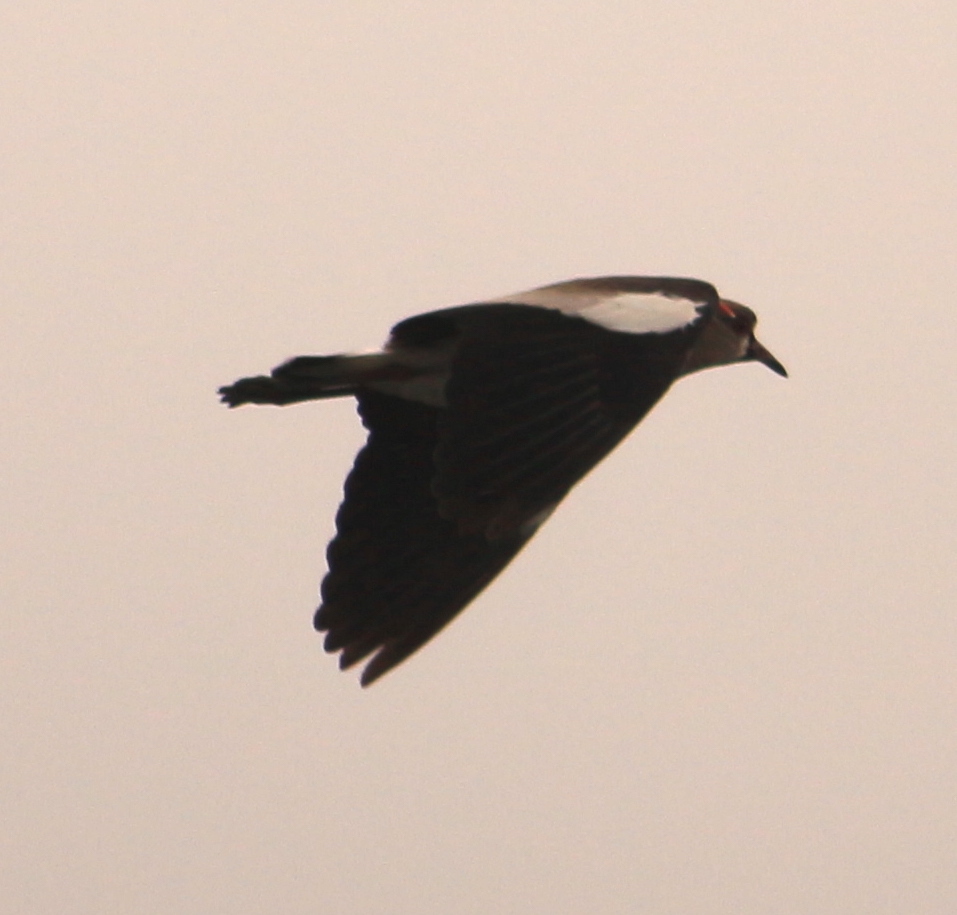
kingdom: Animalia
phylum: Chordata
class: Aves
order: Charadriiformes
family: Charadriidae
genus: Vanellus
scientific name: Vanellus chilensis
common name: Southern lapwing
